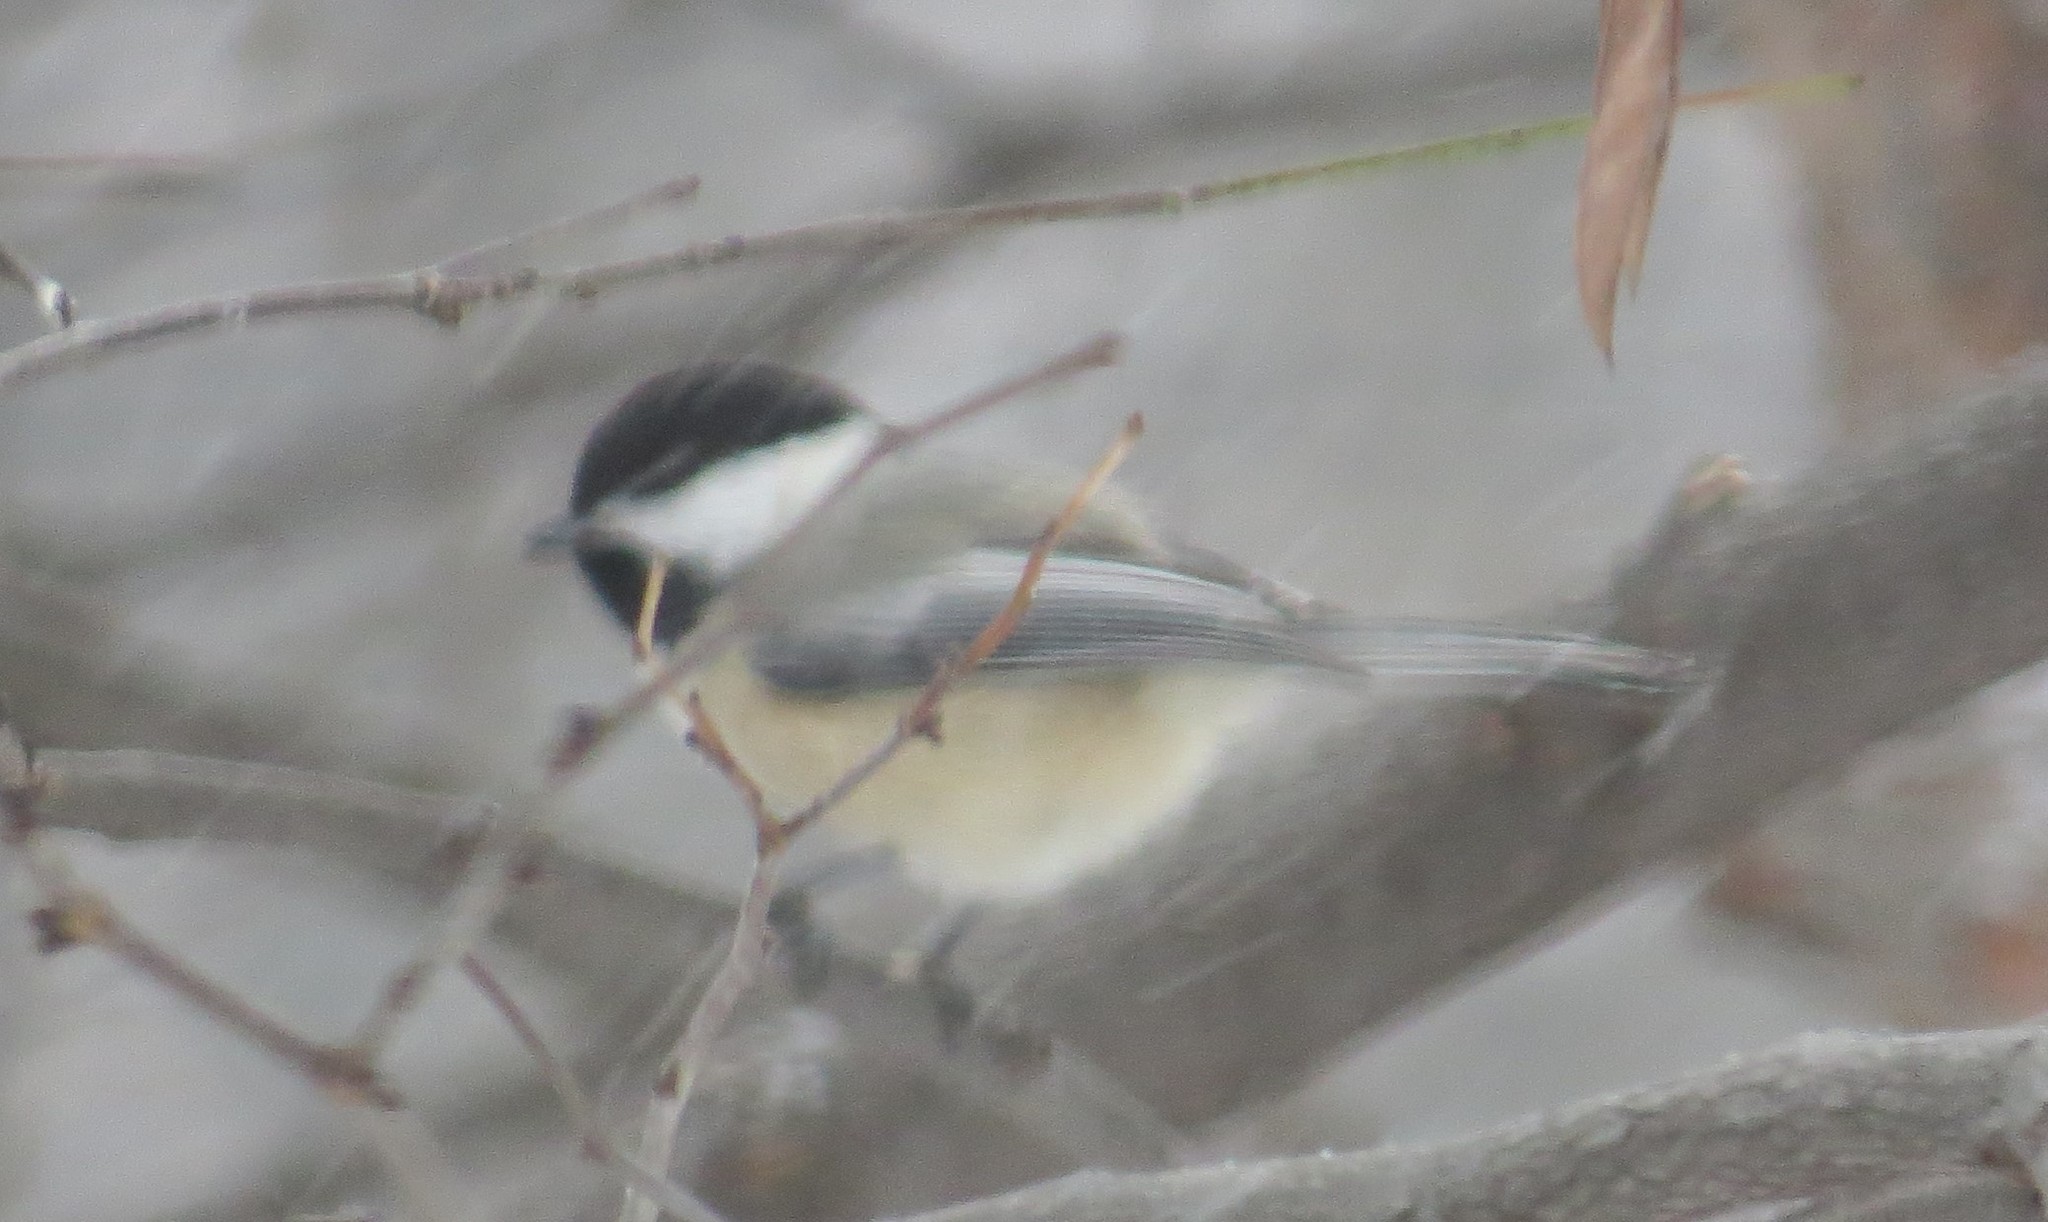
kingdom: Animalia
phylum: Chordata
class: Aves
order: Passeriformes
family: Paridae
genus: Poecile
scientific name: Poecile atricapillus
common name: Black-capped chickadee
